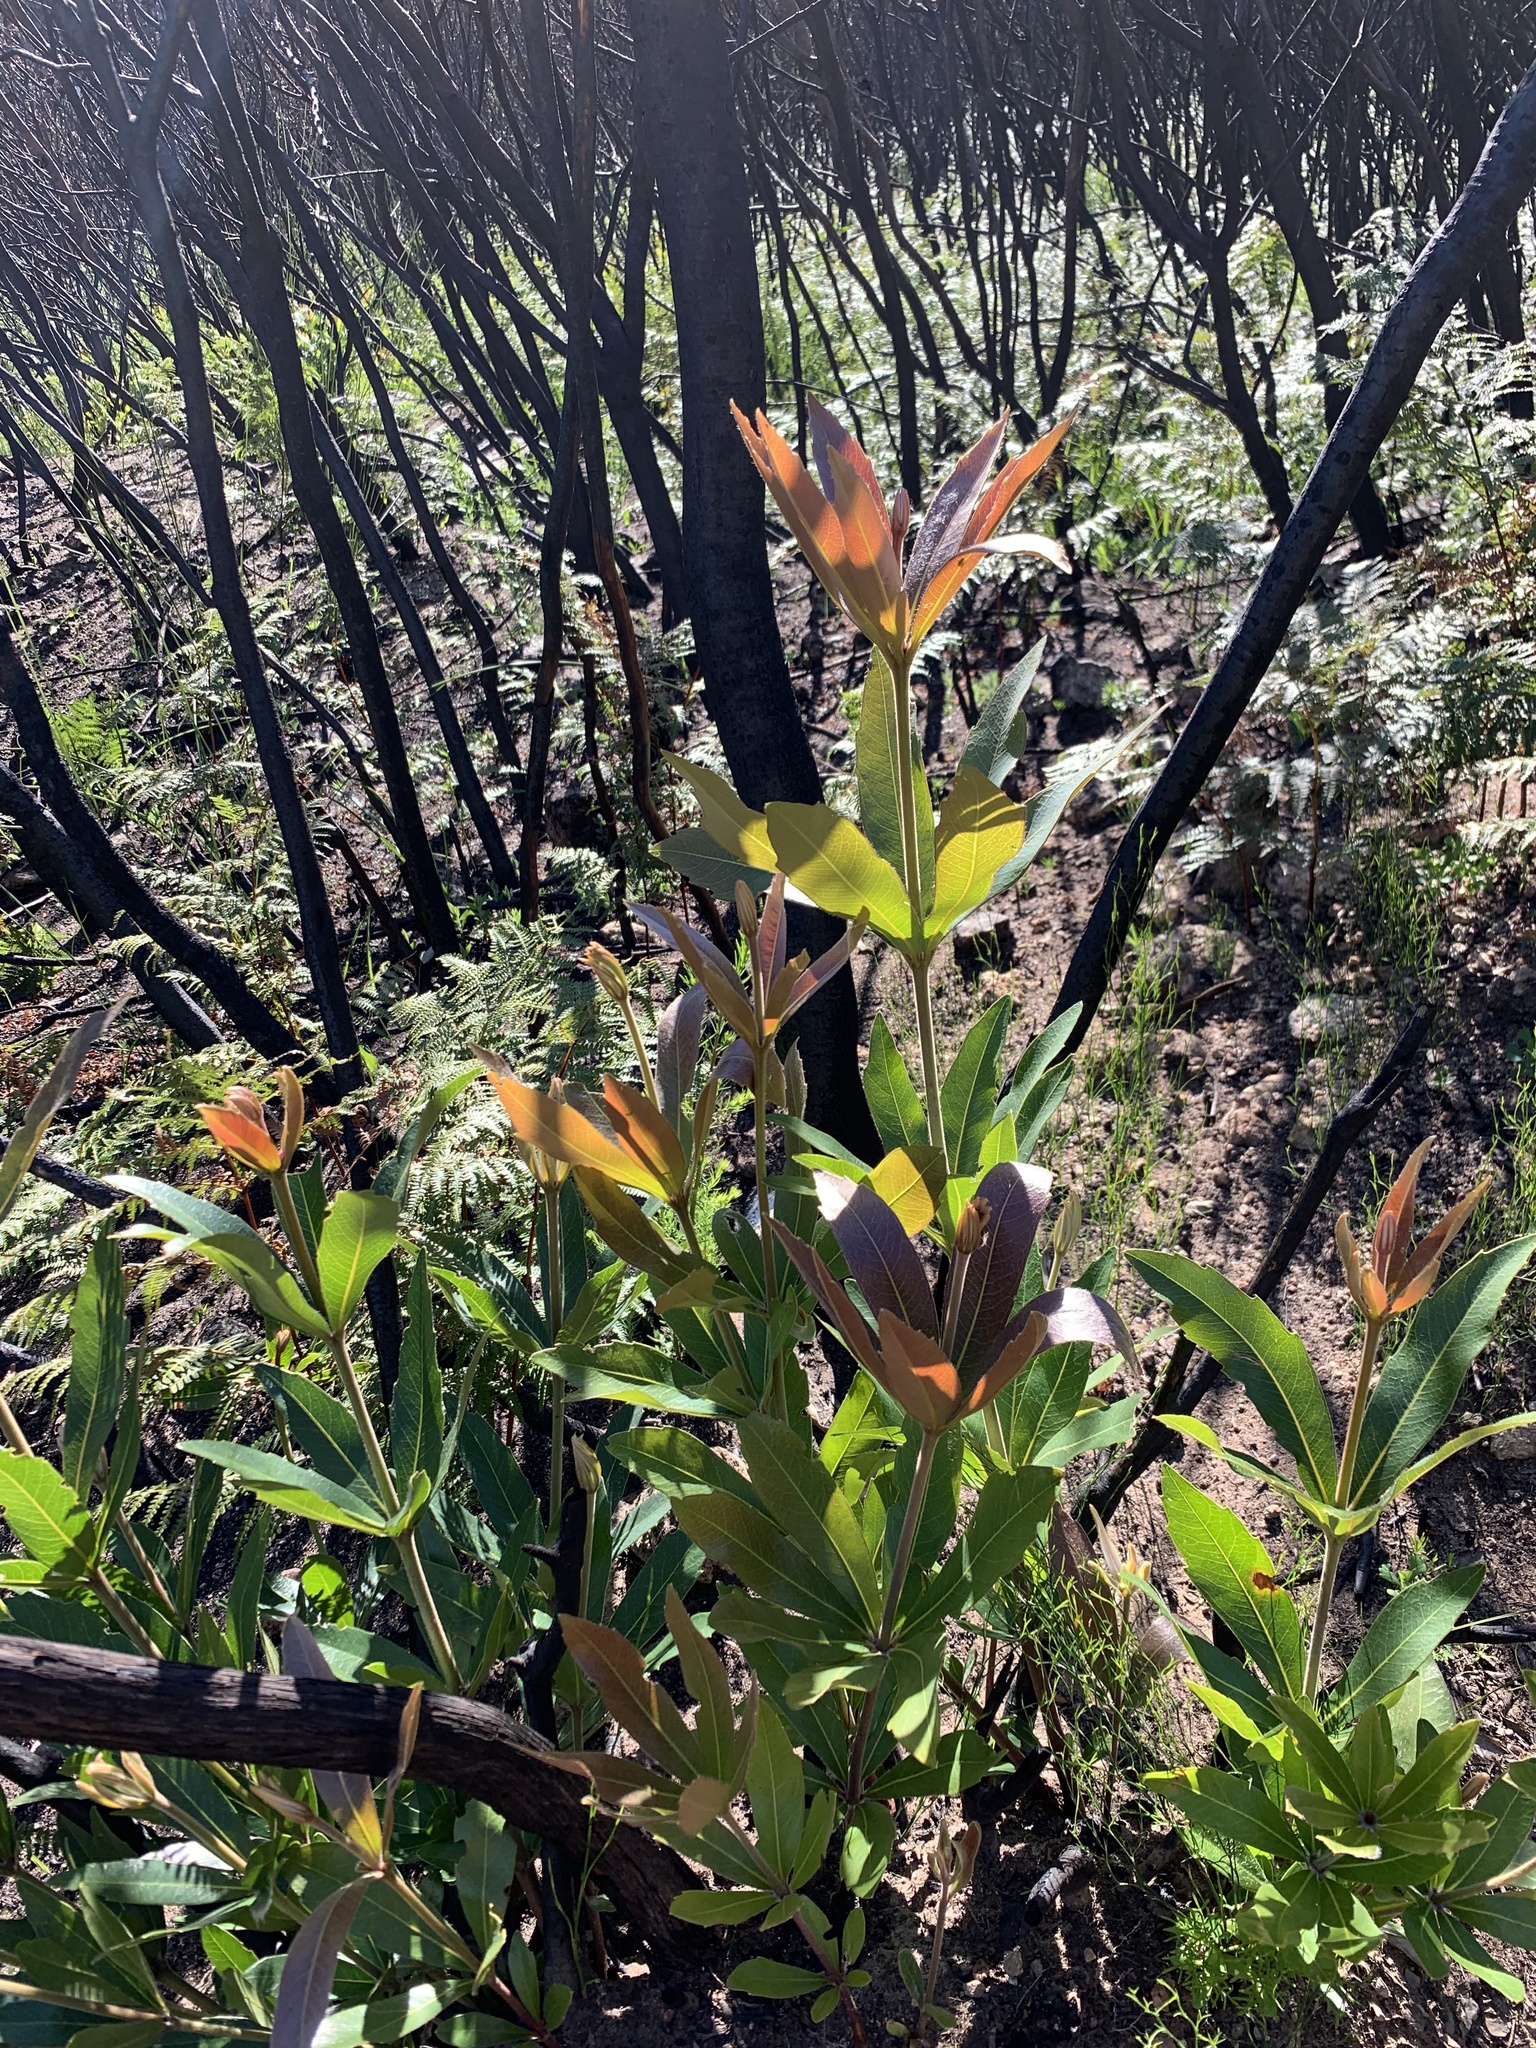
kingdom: Plantae
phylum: Tracheophyta
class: Magnoliopsida
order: Proteales
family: Proteaceae
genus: Brabejum
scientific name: Brabejum stellatifolium
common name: Wild almond
